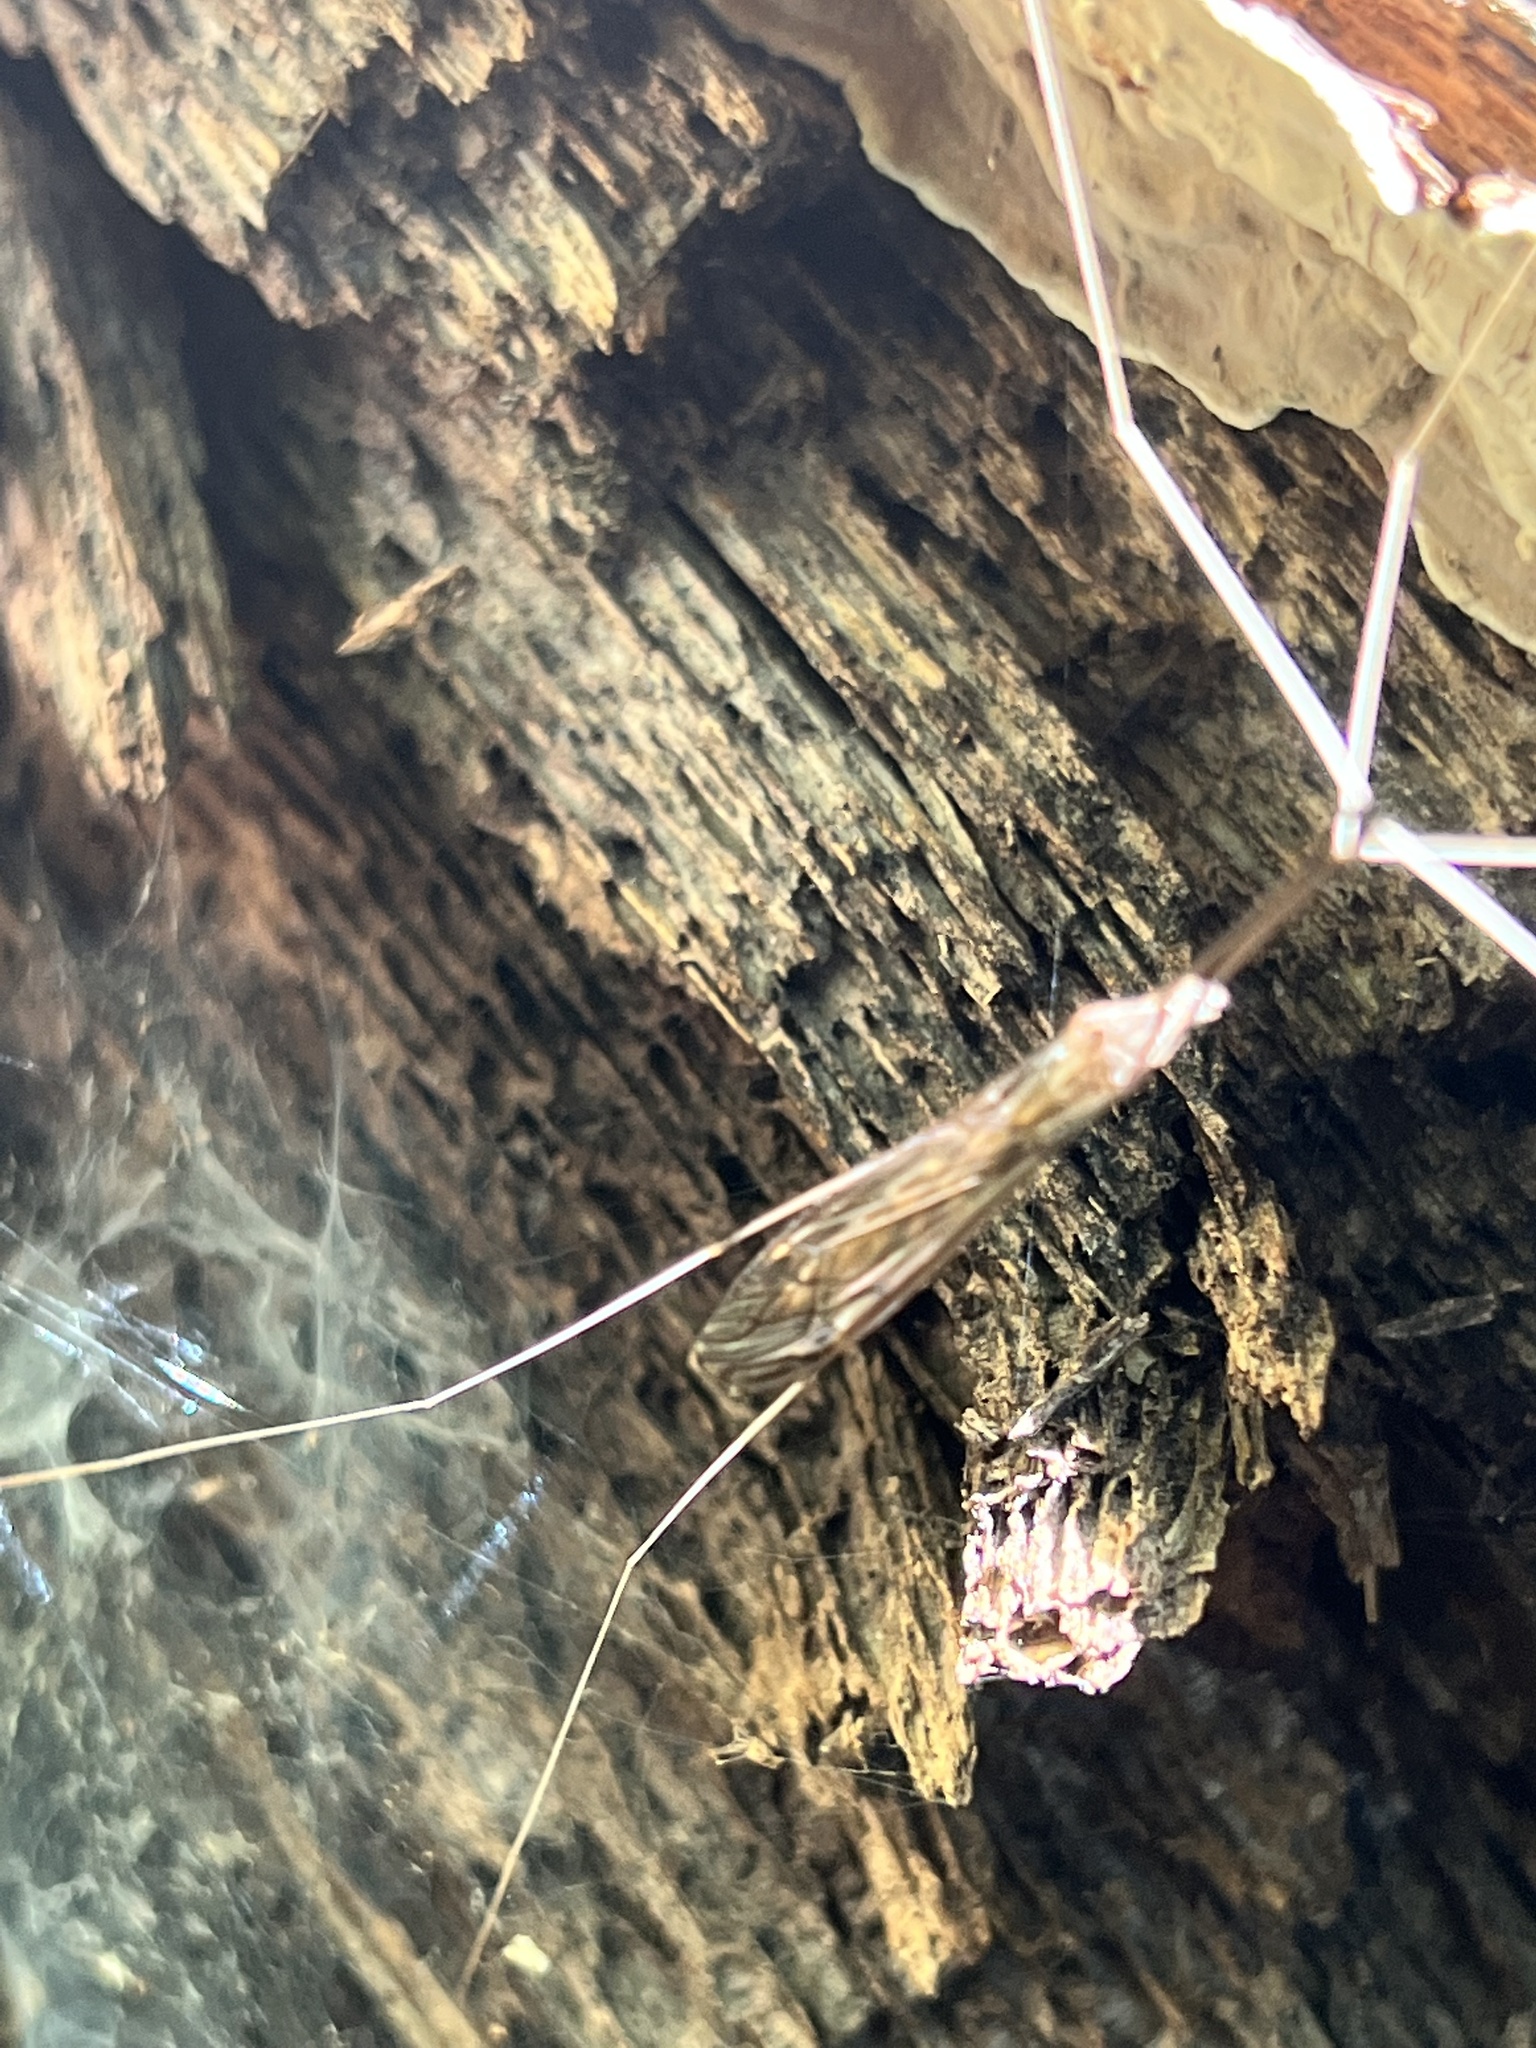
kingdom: Animalia
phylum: Arthropoda
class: Insecta
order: Diptera
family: Tipulidae
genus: Brachypremna
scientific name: Brachypremna dispellens
